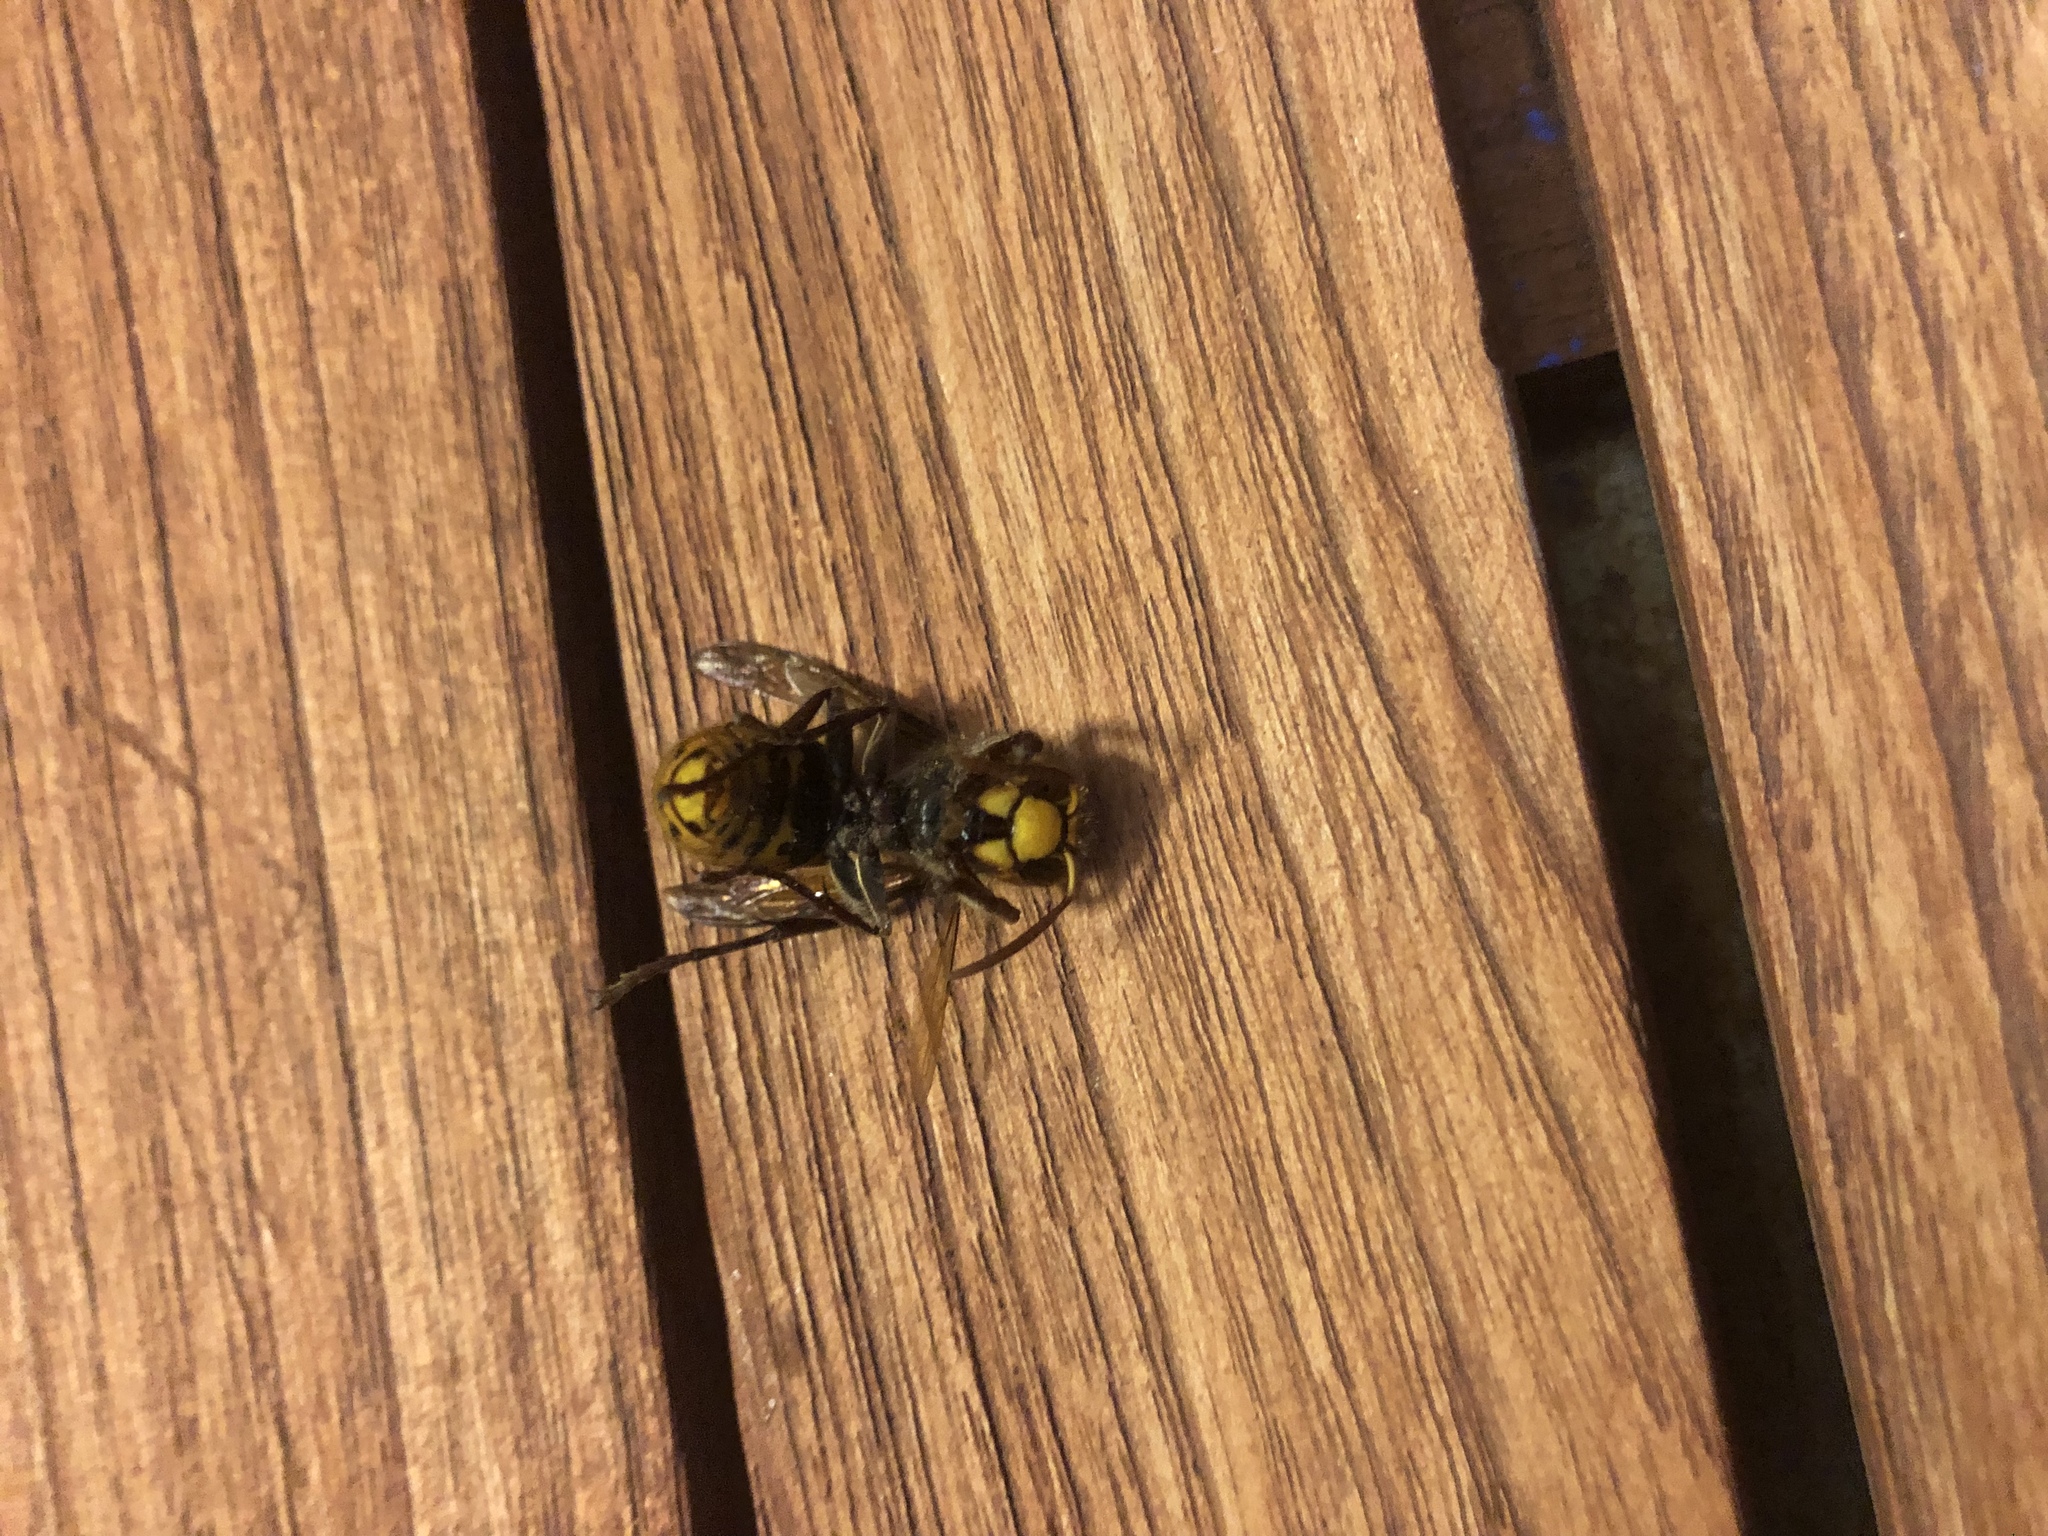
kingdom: Animalia
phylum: Arthropoda
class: Insecta
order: Hymenoptera
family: Vespidae
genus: Vespa
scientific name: Vespa crabro
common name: Hornet
